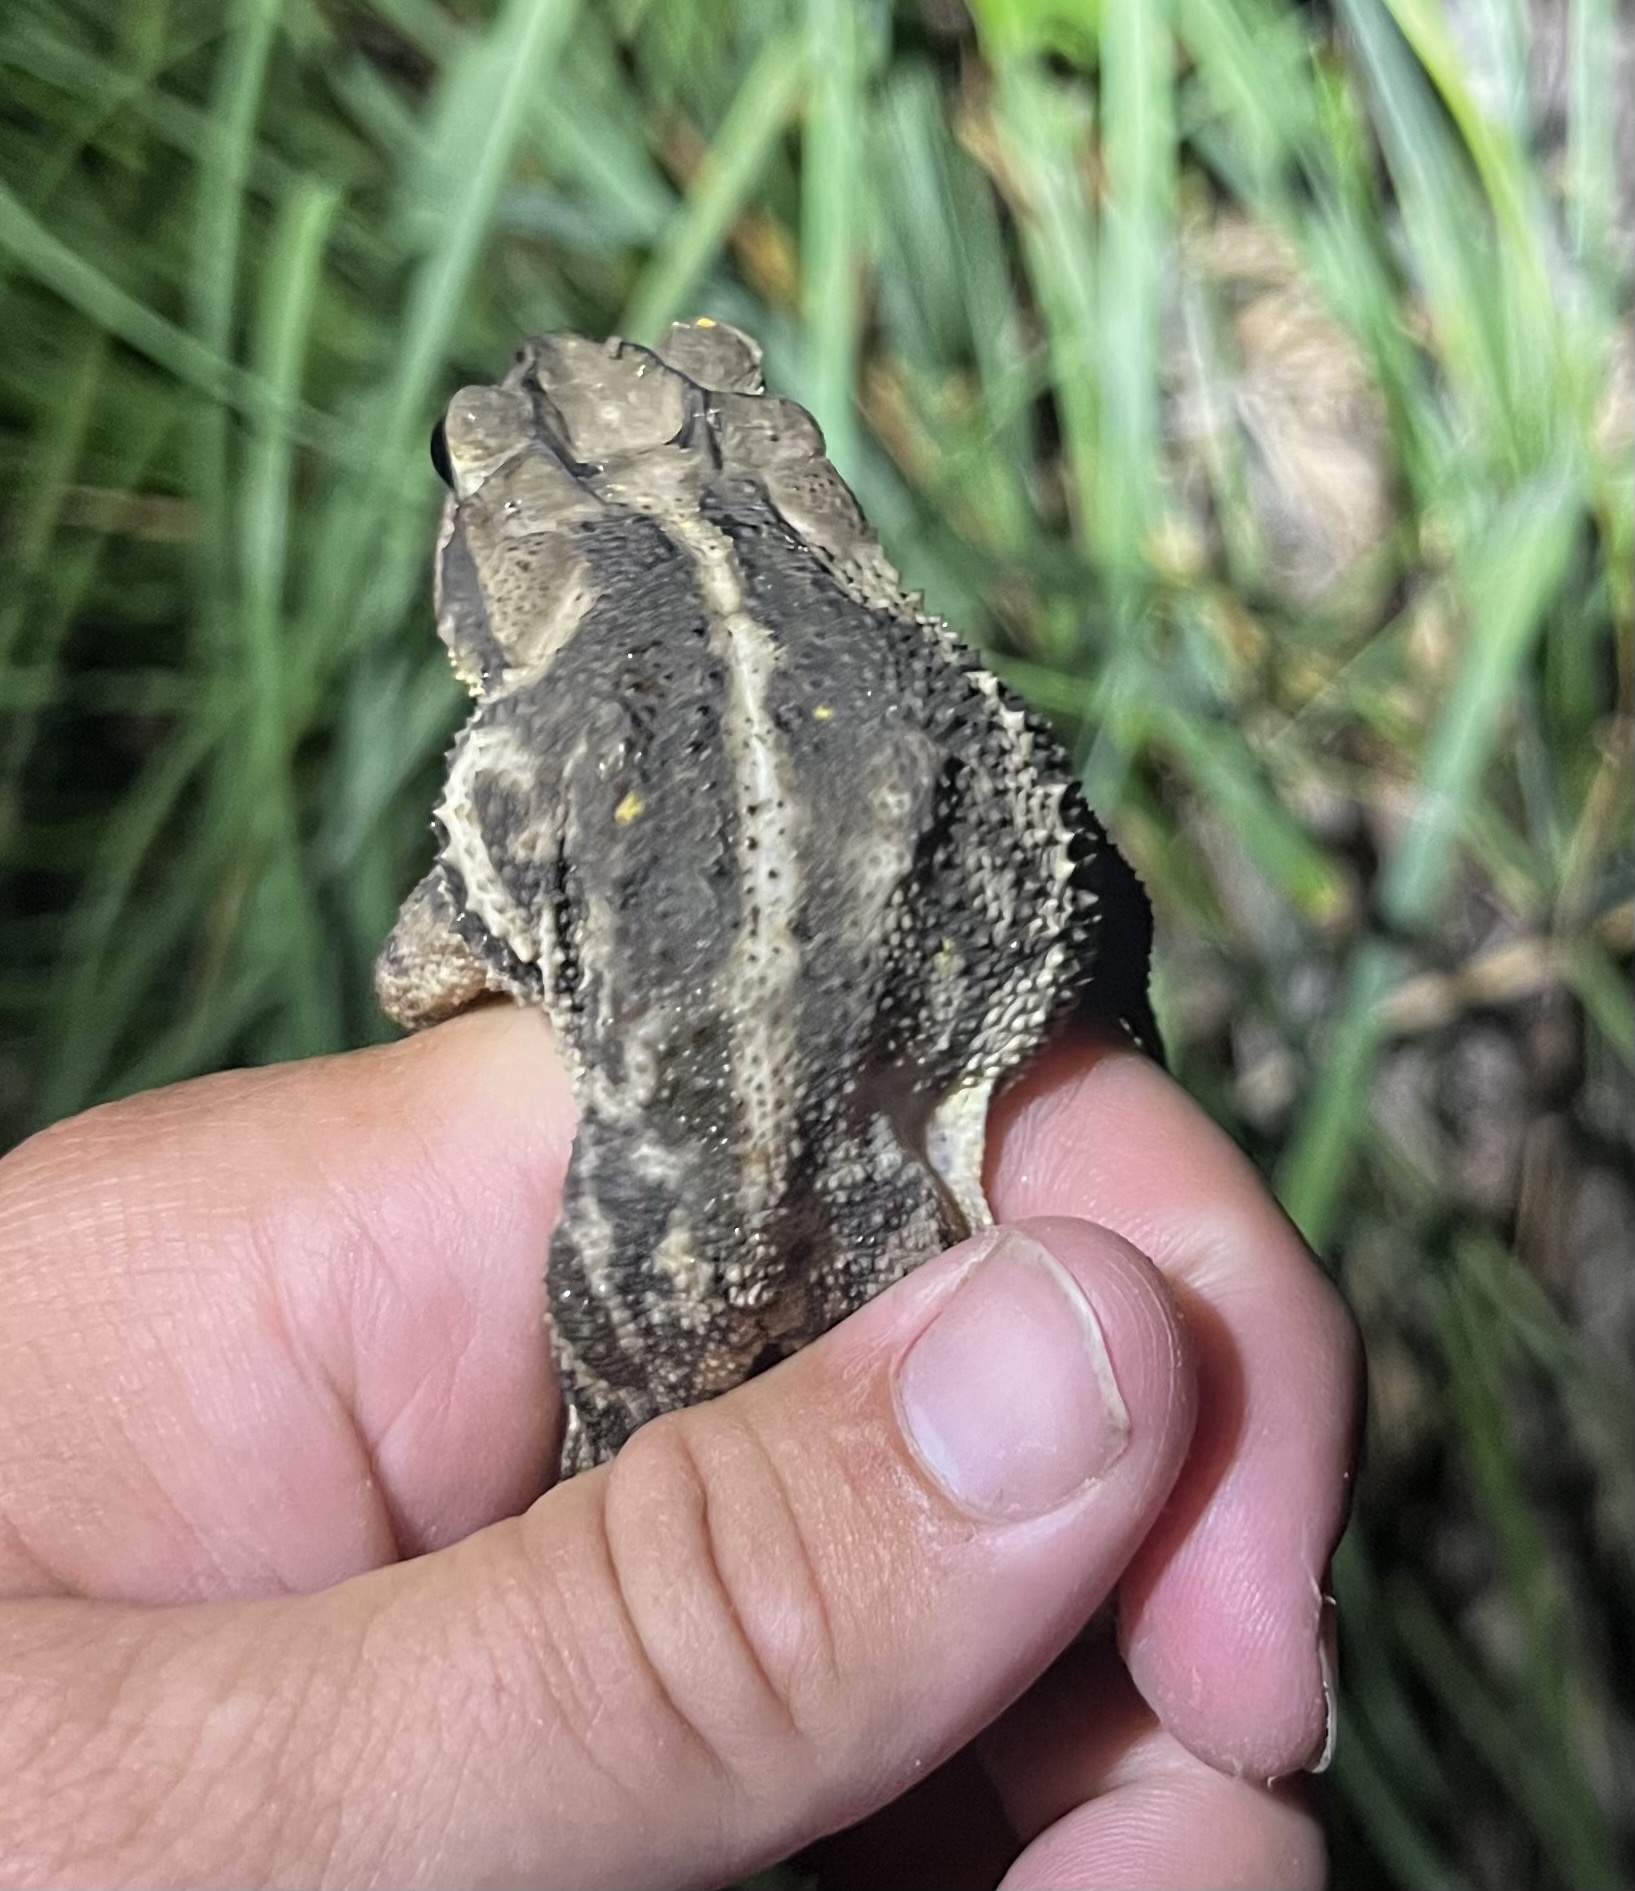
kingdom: Animalia
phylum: Chordata
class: Amphibia
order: Anura
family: Bufonidae
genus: Incilius
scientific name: Incilius nebulifer
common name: Gulf coast toad
